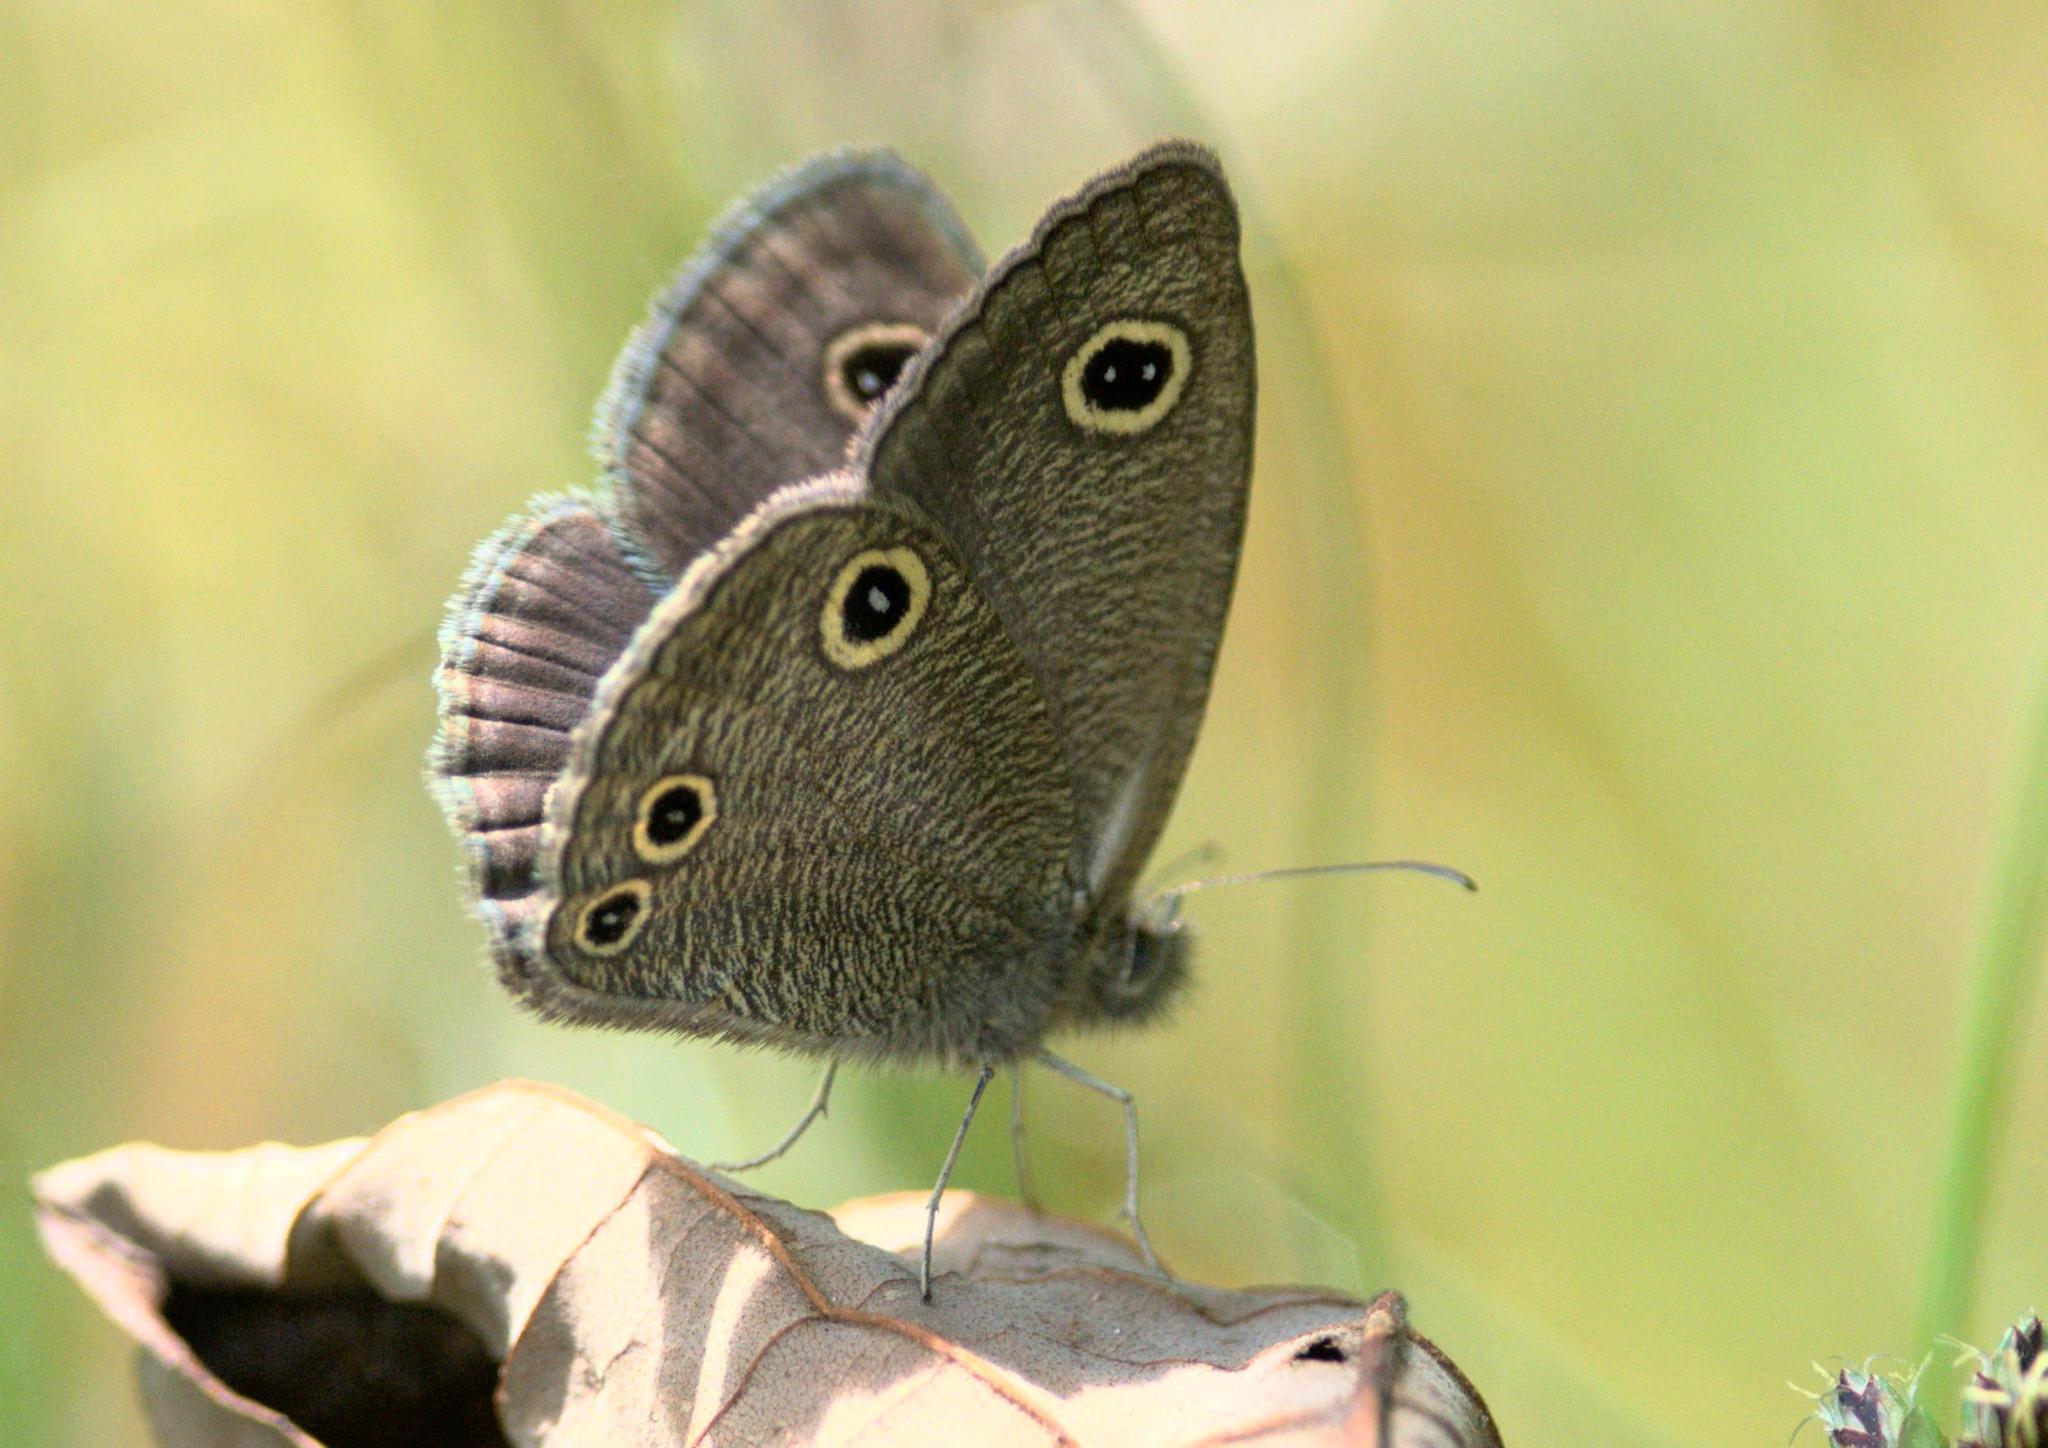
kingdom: Animalia
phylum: Arthropoda
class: Insecta
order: Lepidoptera
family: Nymphalidae
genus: Ypthima
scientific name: Ypthima nareda
